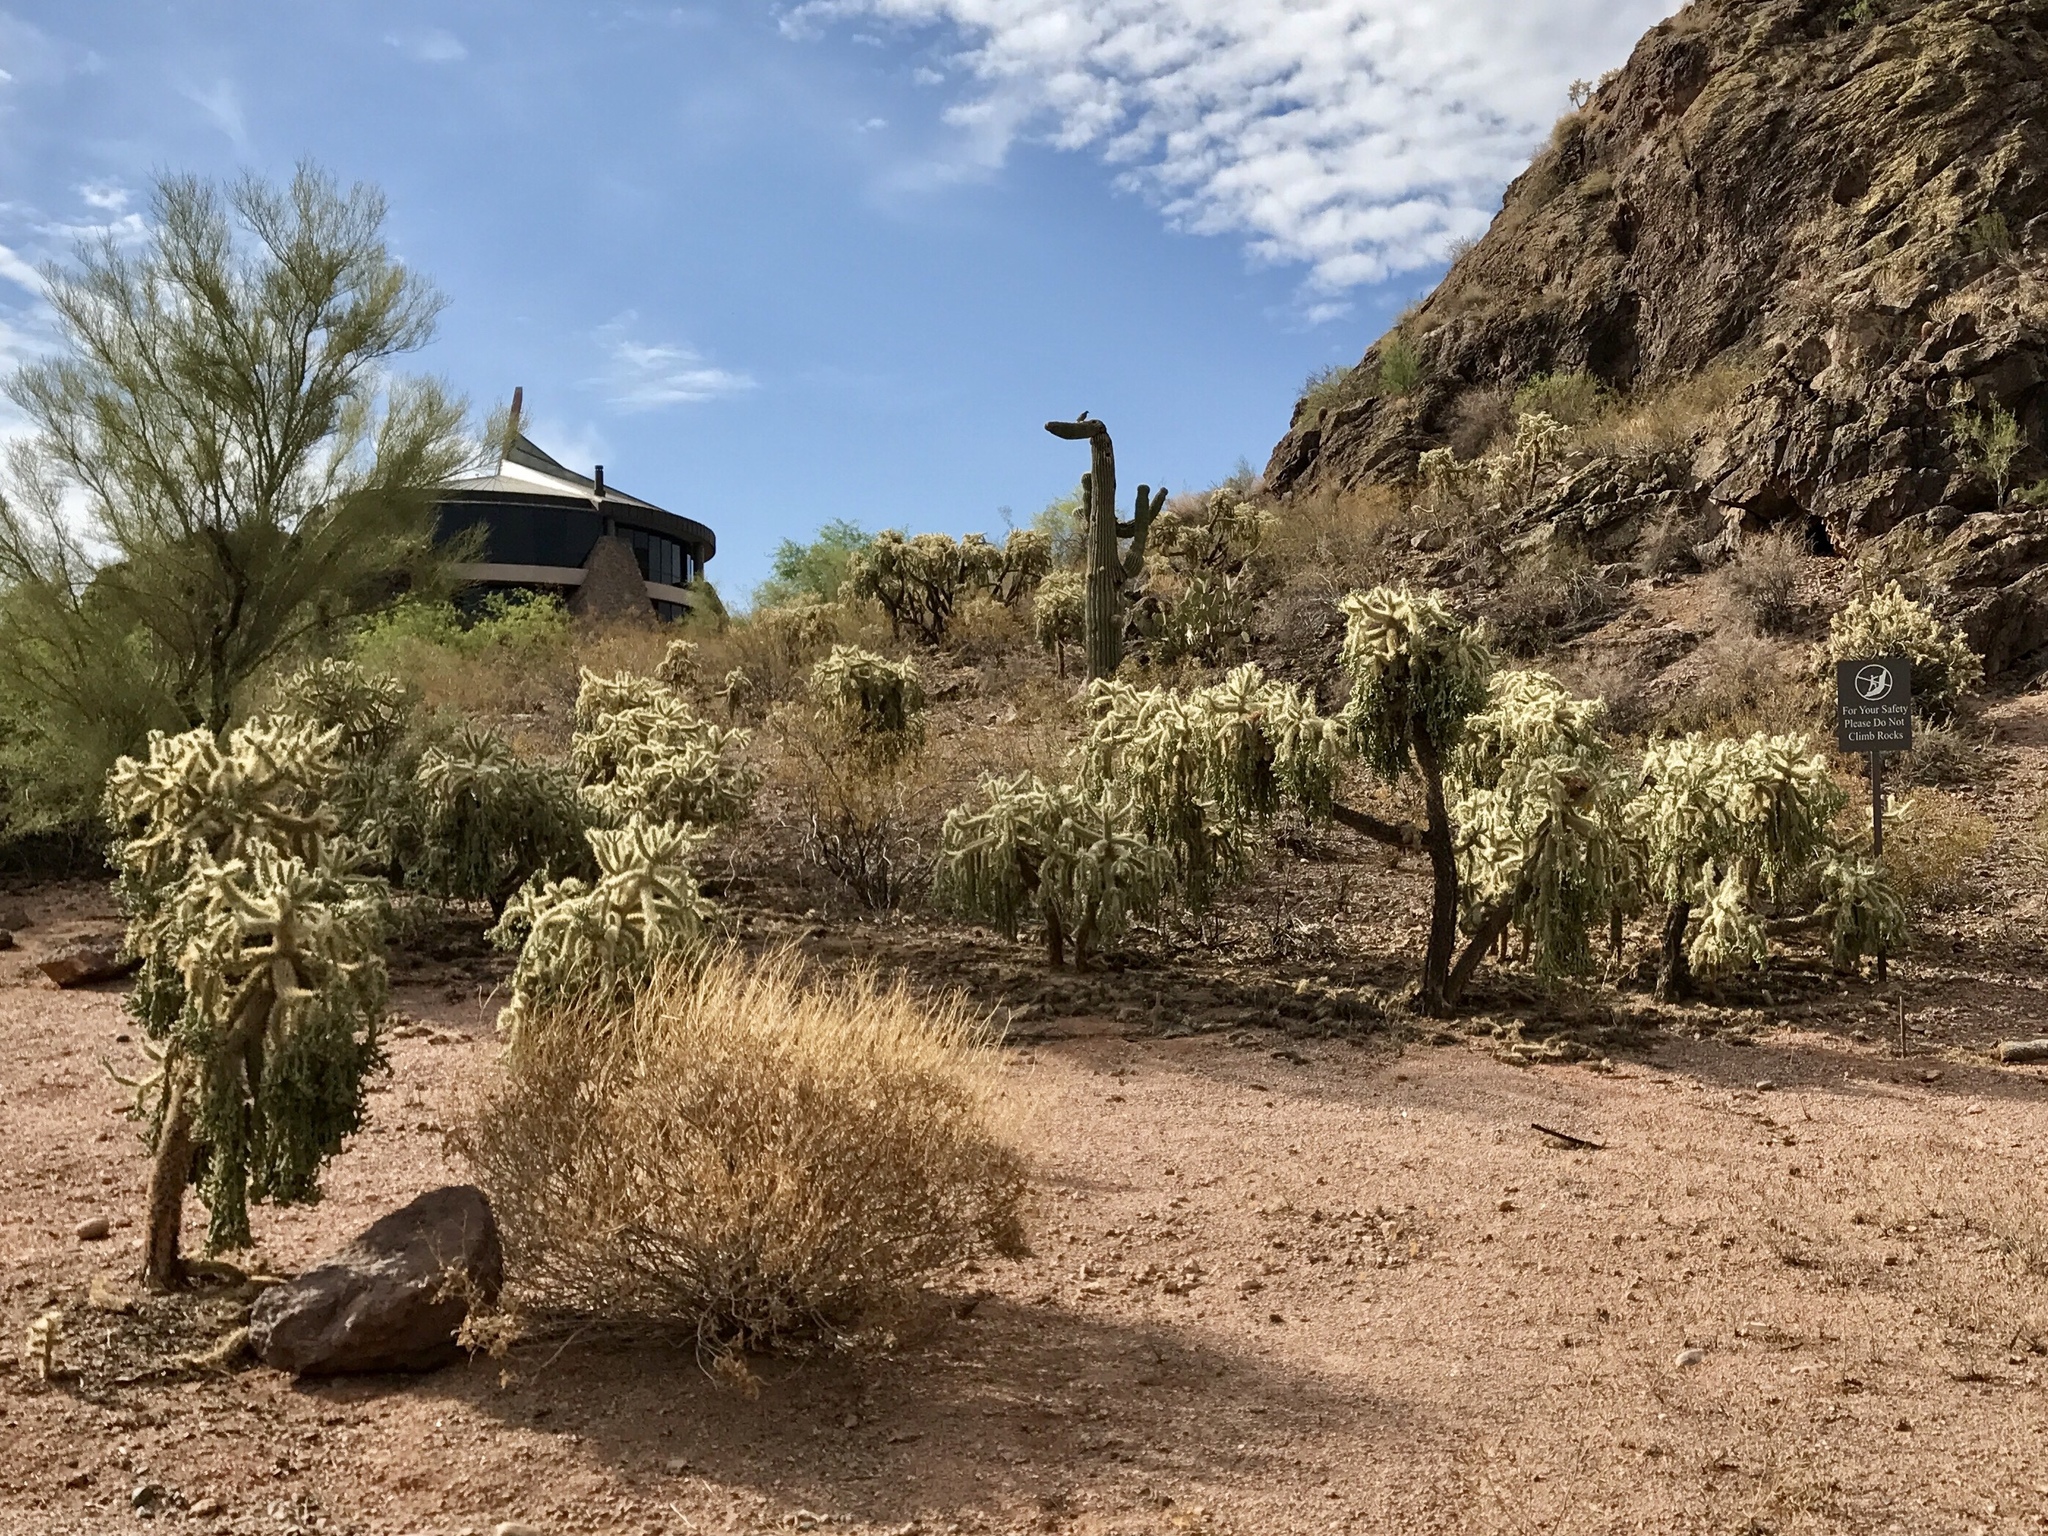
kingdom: Plantae
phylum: Tracheophyta
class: Magnoliopsida
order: Caryophyllales
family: Cactaceae
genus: Cylindropuntia
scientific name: Cylindropuntia fulgida
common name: Jumping cholla
